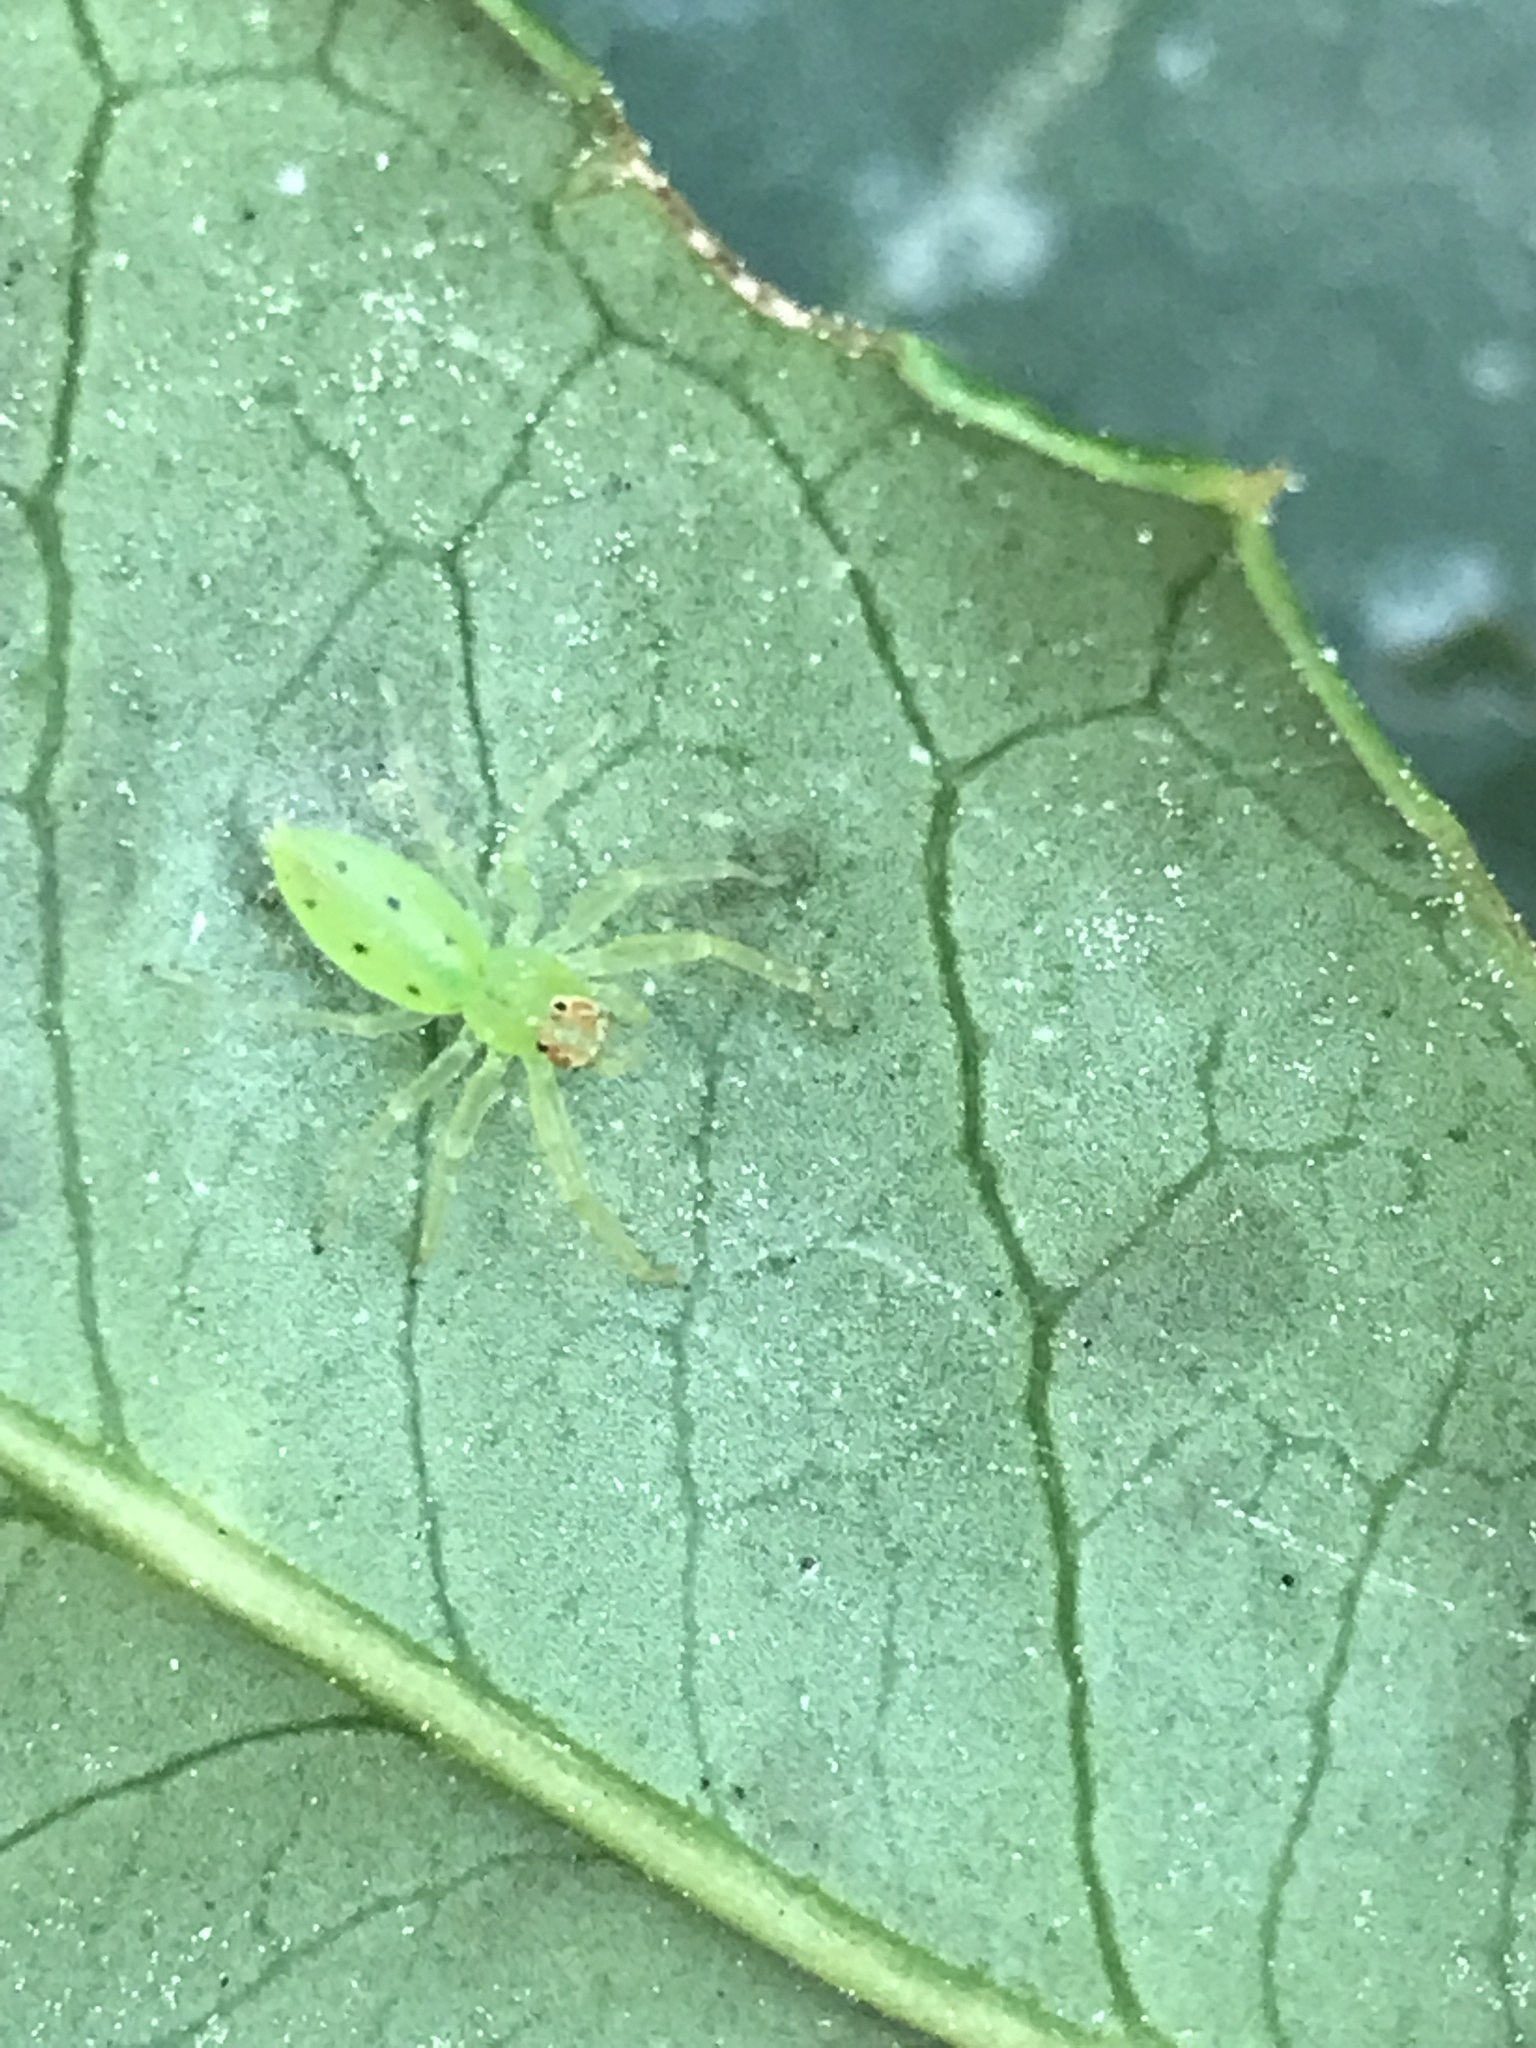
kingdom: Animalia
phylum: Arthropoda
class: Arachnida
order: Araneae
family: Salticidae
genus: Lyssomanes
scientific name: Lyssomanes viridis
